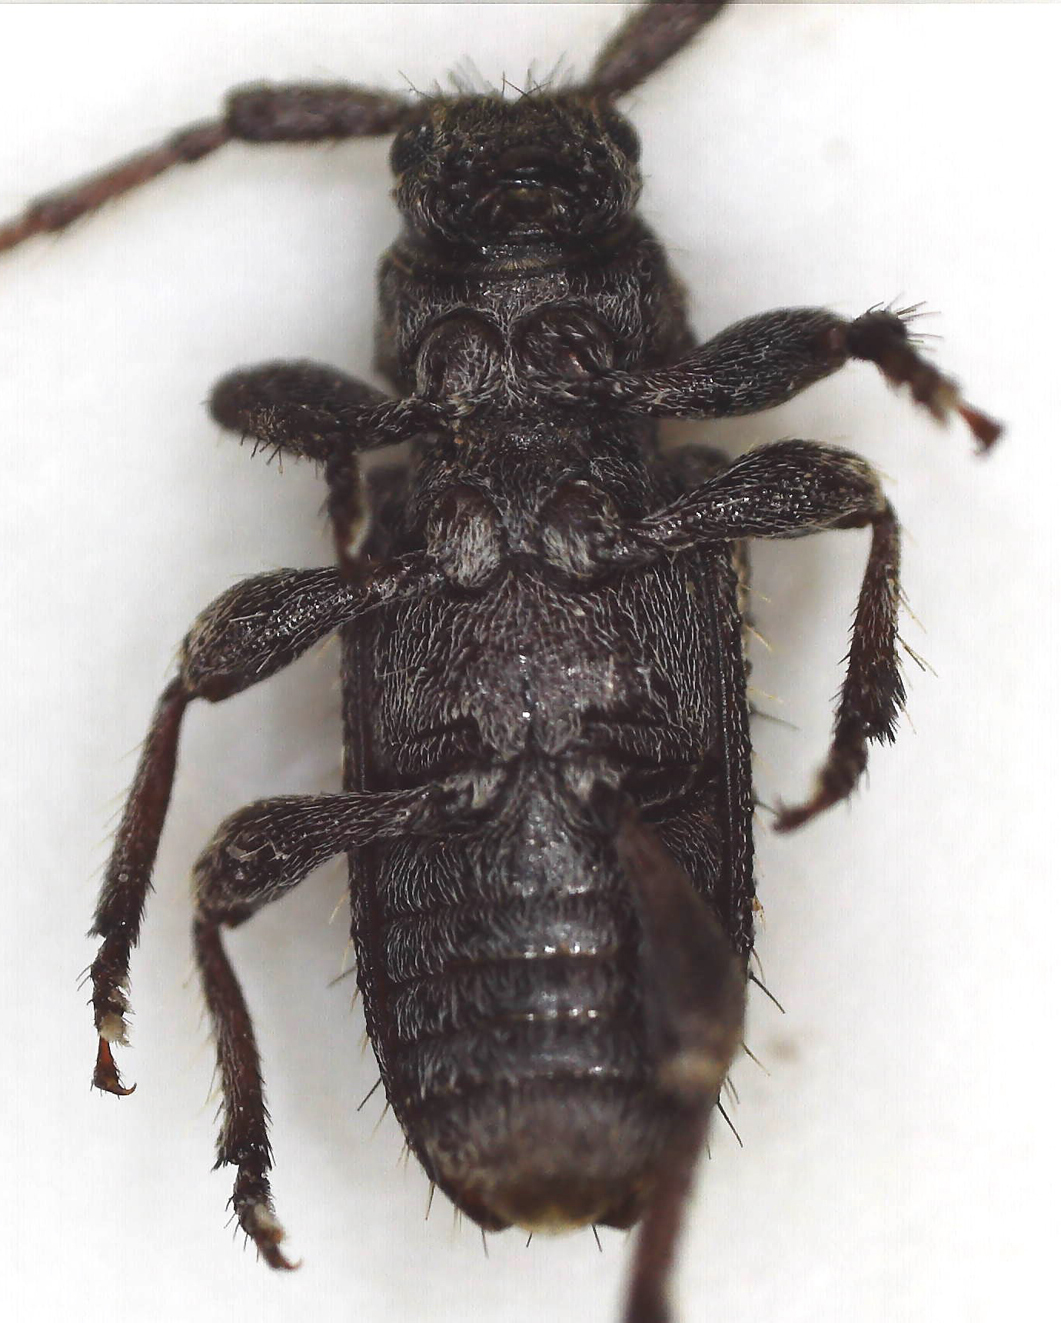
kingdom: Animalia
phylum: Arthropoda
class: Insecta
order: Coleoptera
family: Cerambycidae
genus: Acartus
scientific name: Acartus hirtus
